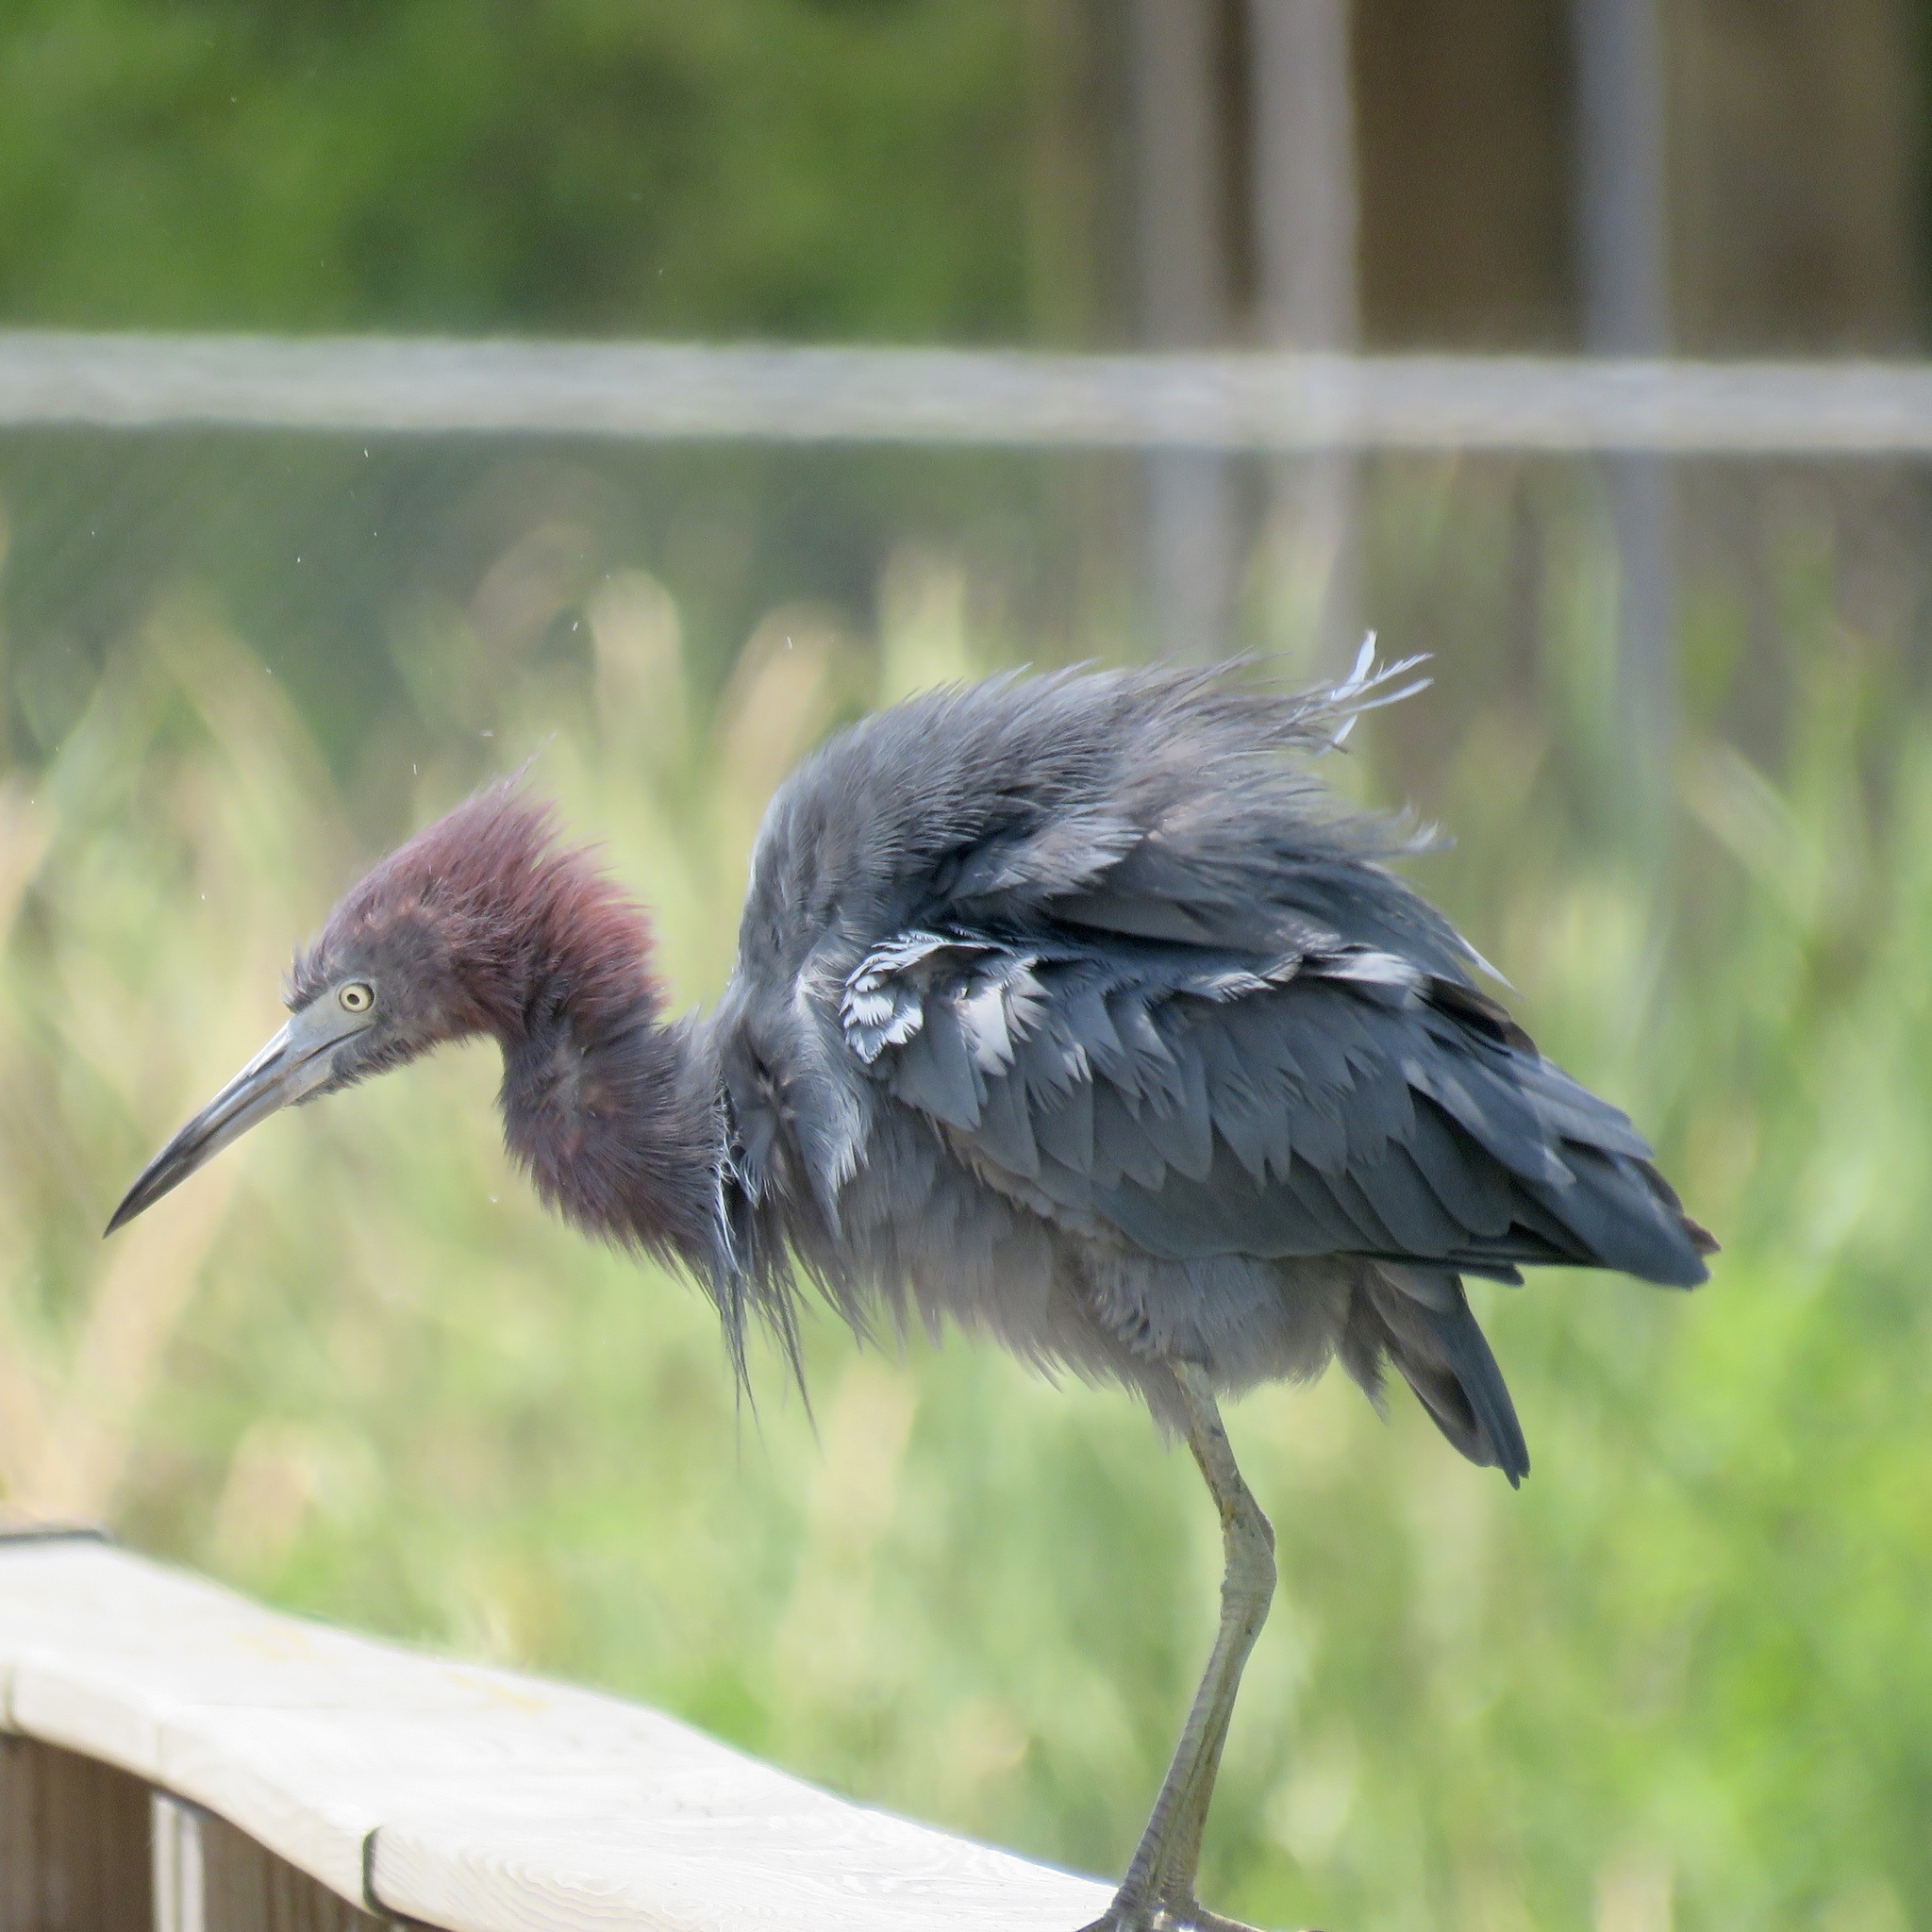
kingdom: Animalia
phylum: Chordata
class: Aves
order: Pelecaniformes
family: Ardeidae
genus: Egretta
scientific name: Egretta caerulea
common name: Little blue heron
